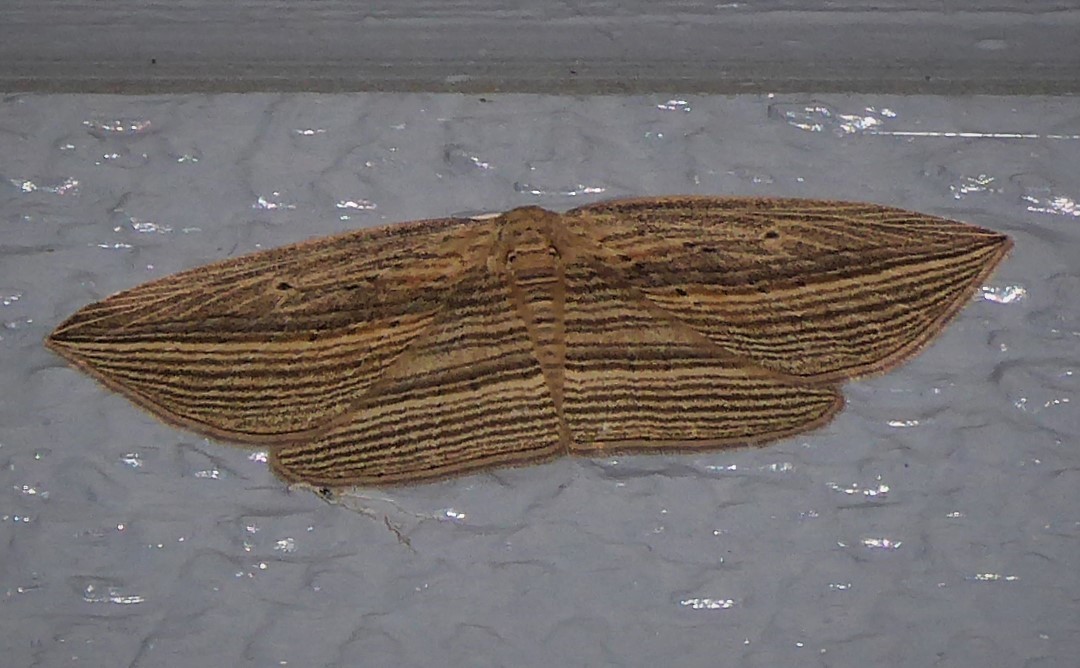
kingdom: Animalia
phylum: Arthropoda
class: Insecta
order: Lepidoptera
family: Geometridae
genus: Epiphryne
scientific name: Epiphryne verriculata
